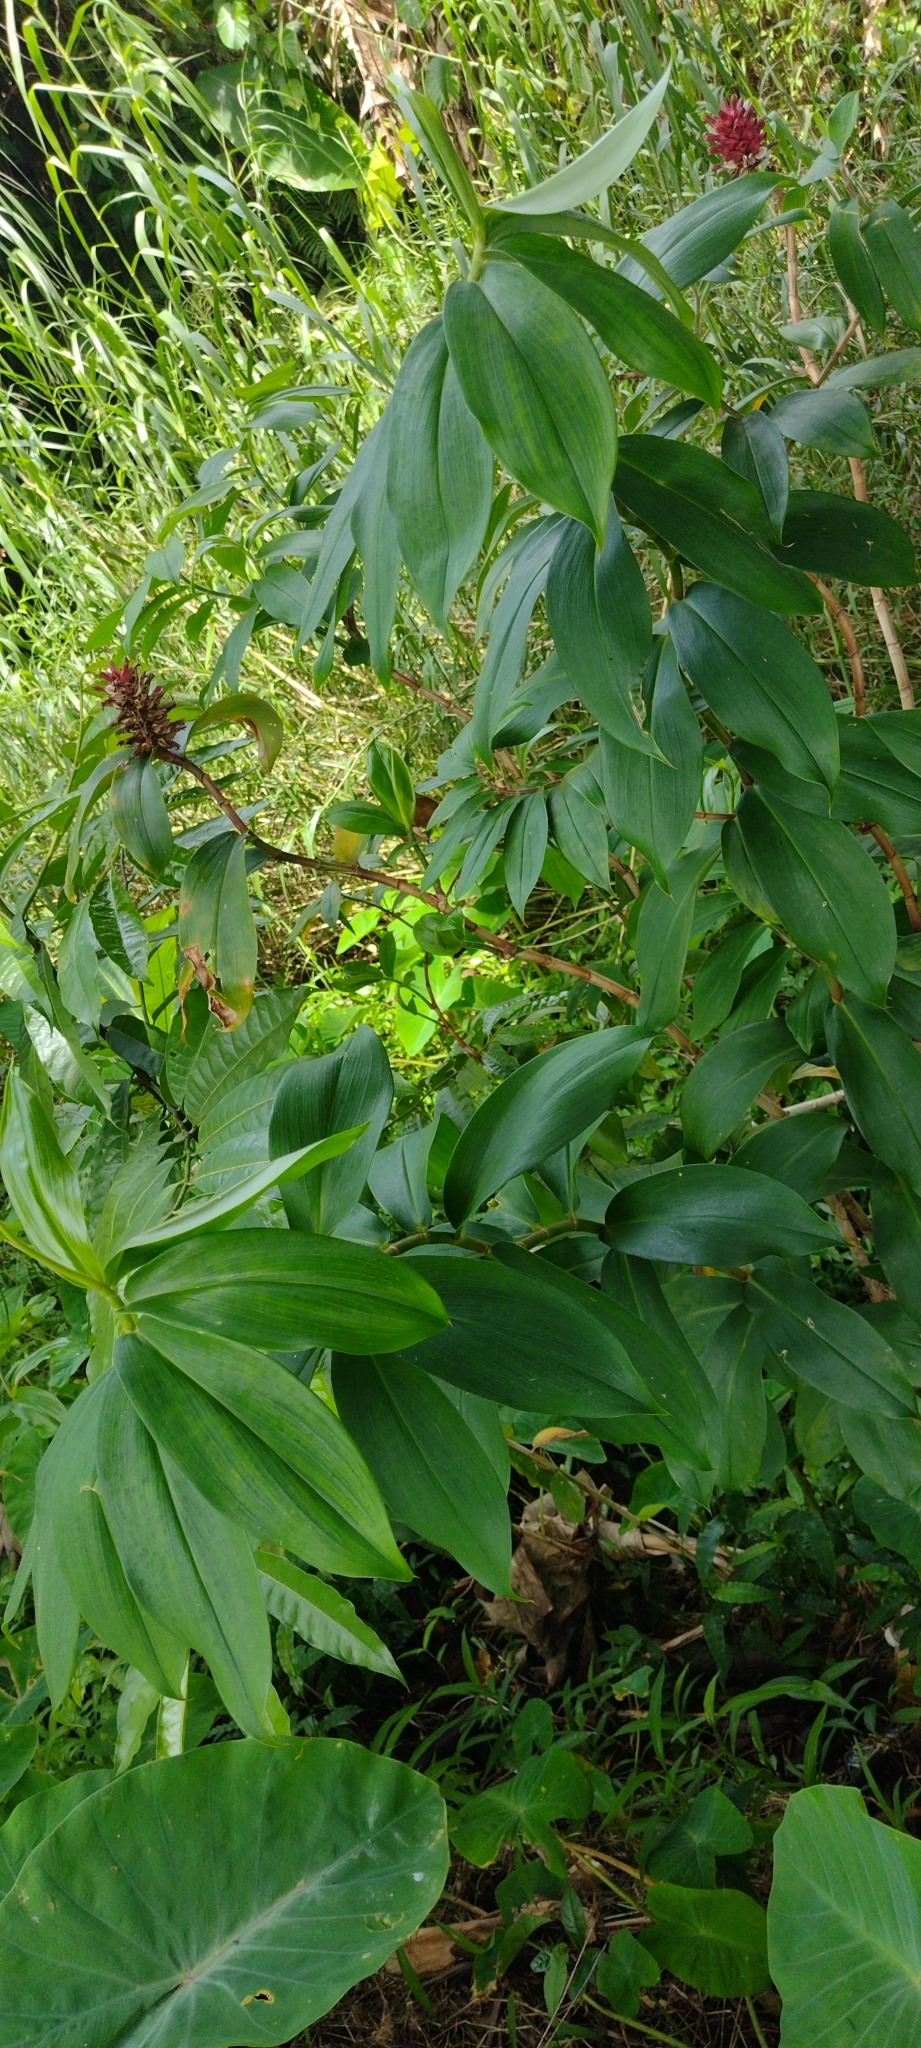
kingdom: Plantae
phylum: Tracheophyta
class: Liliopsida
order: Zingiberales
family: Costaceae
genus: Hellenia
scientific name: Hellenia speciosa
